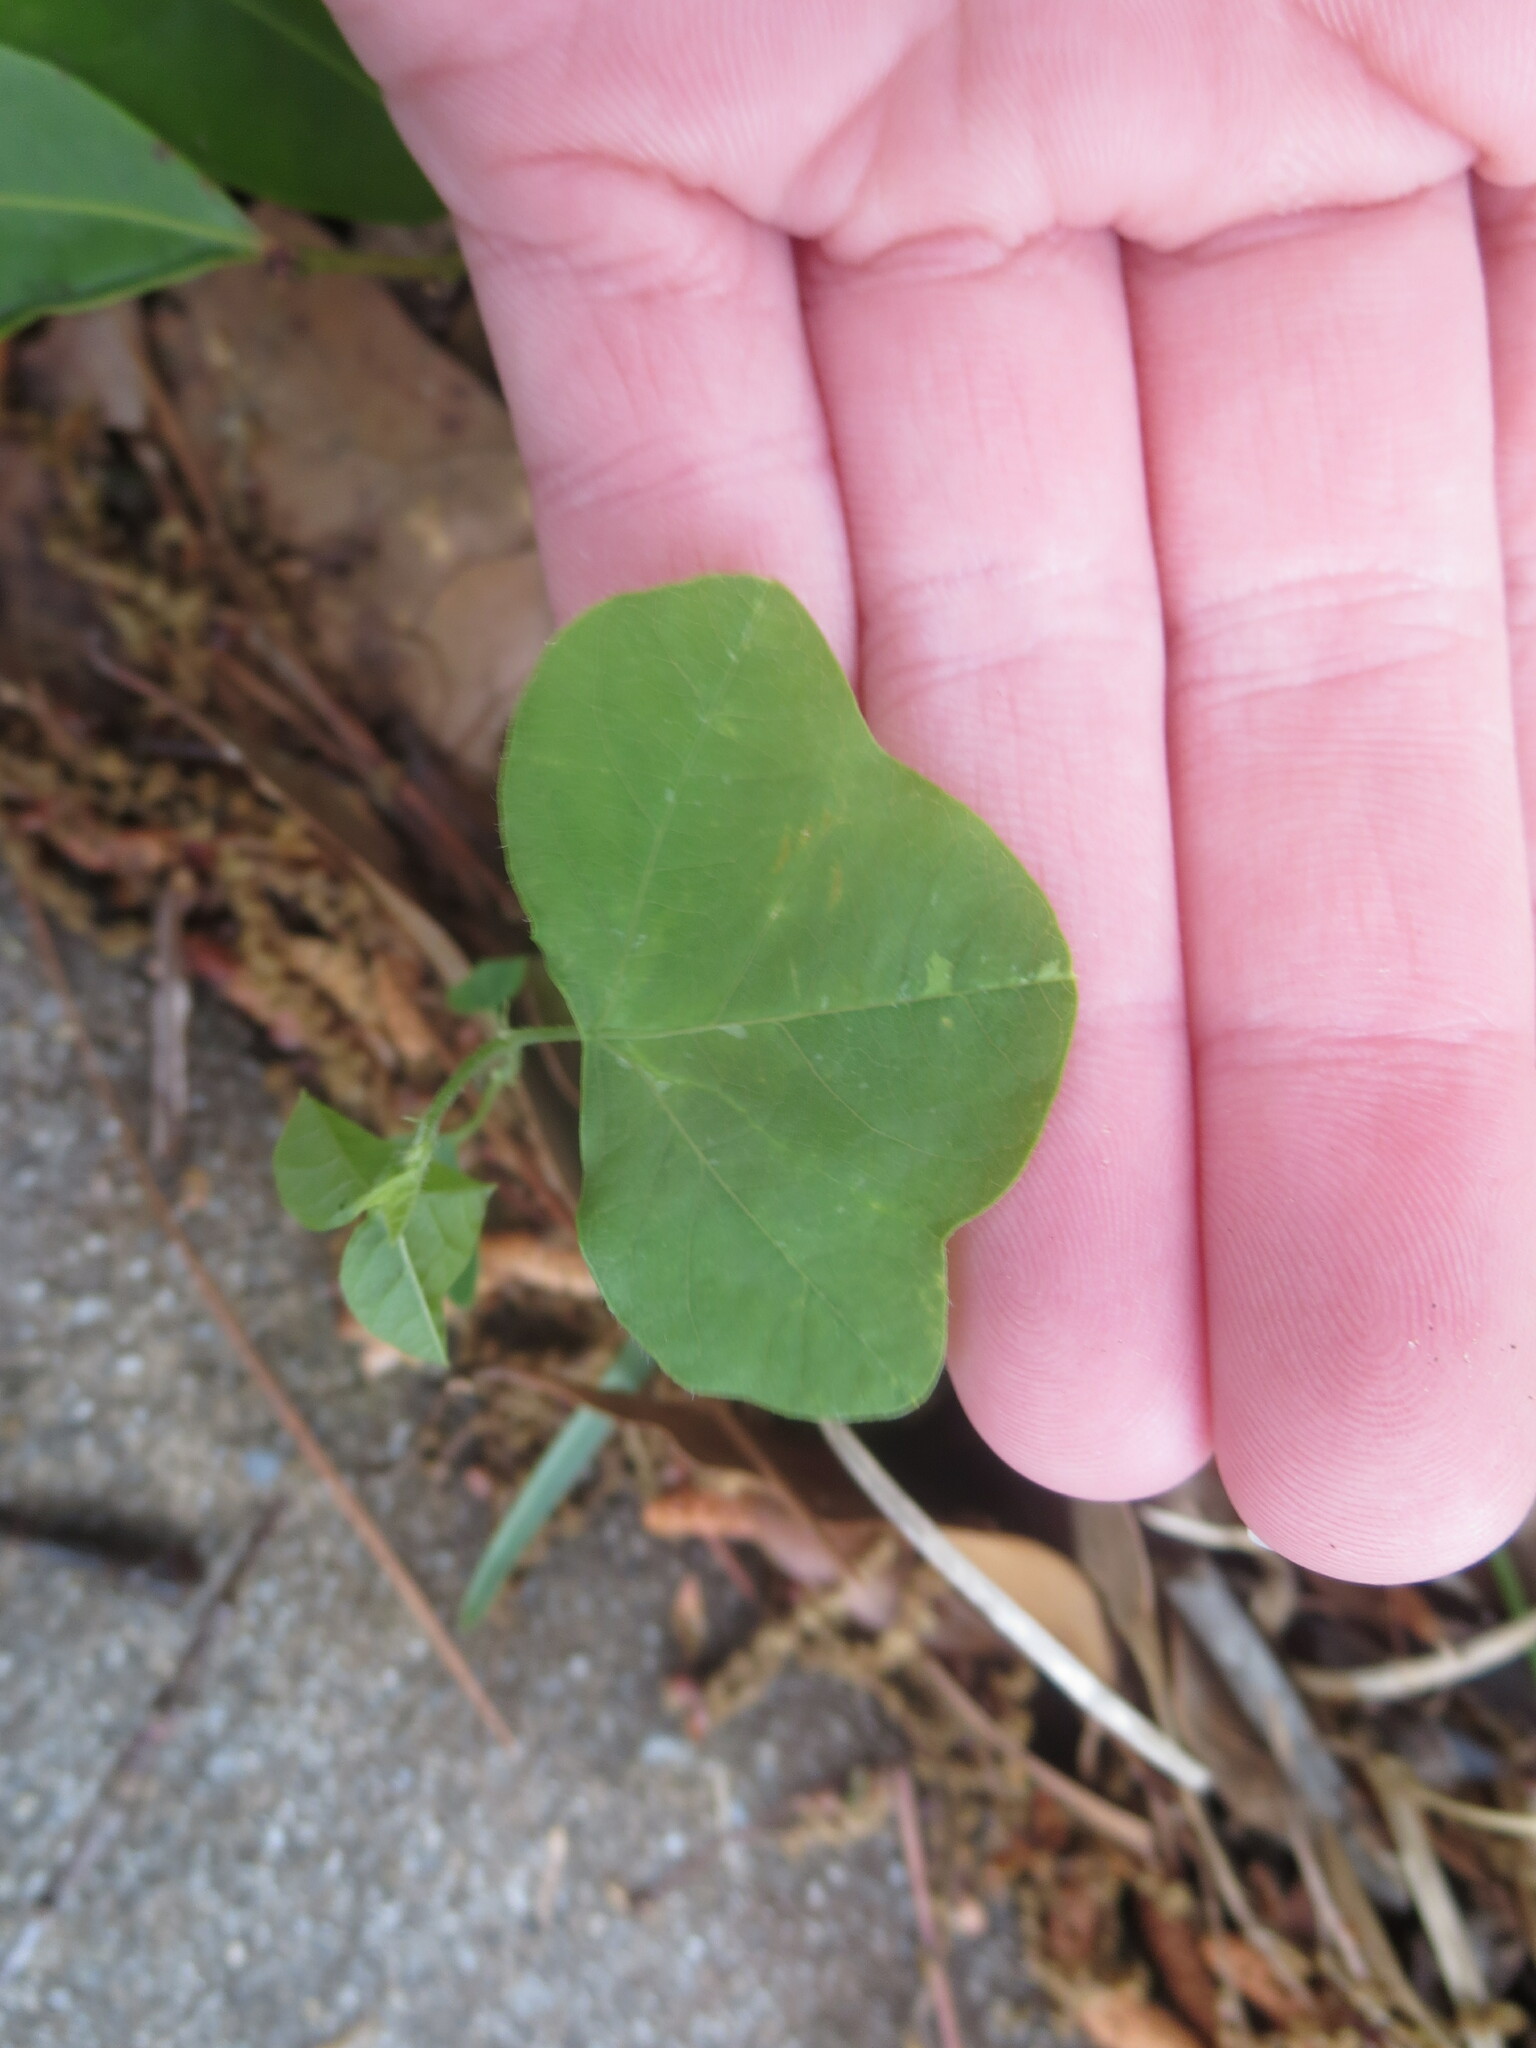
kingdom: Plantae
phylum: Tracheophyta
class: Magnoliopsida
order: Malpighiales
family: Passifloraceae
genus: Passiflora
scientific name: Passiflora lutea
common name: Yellow passionflower
